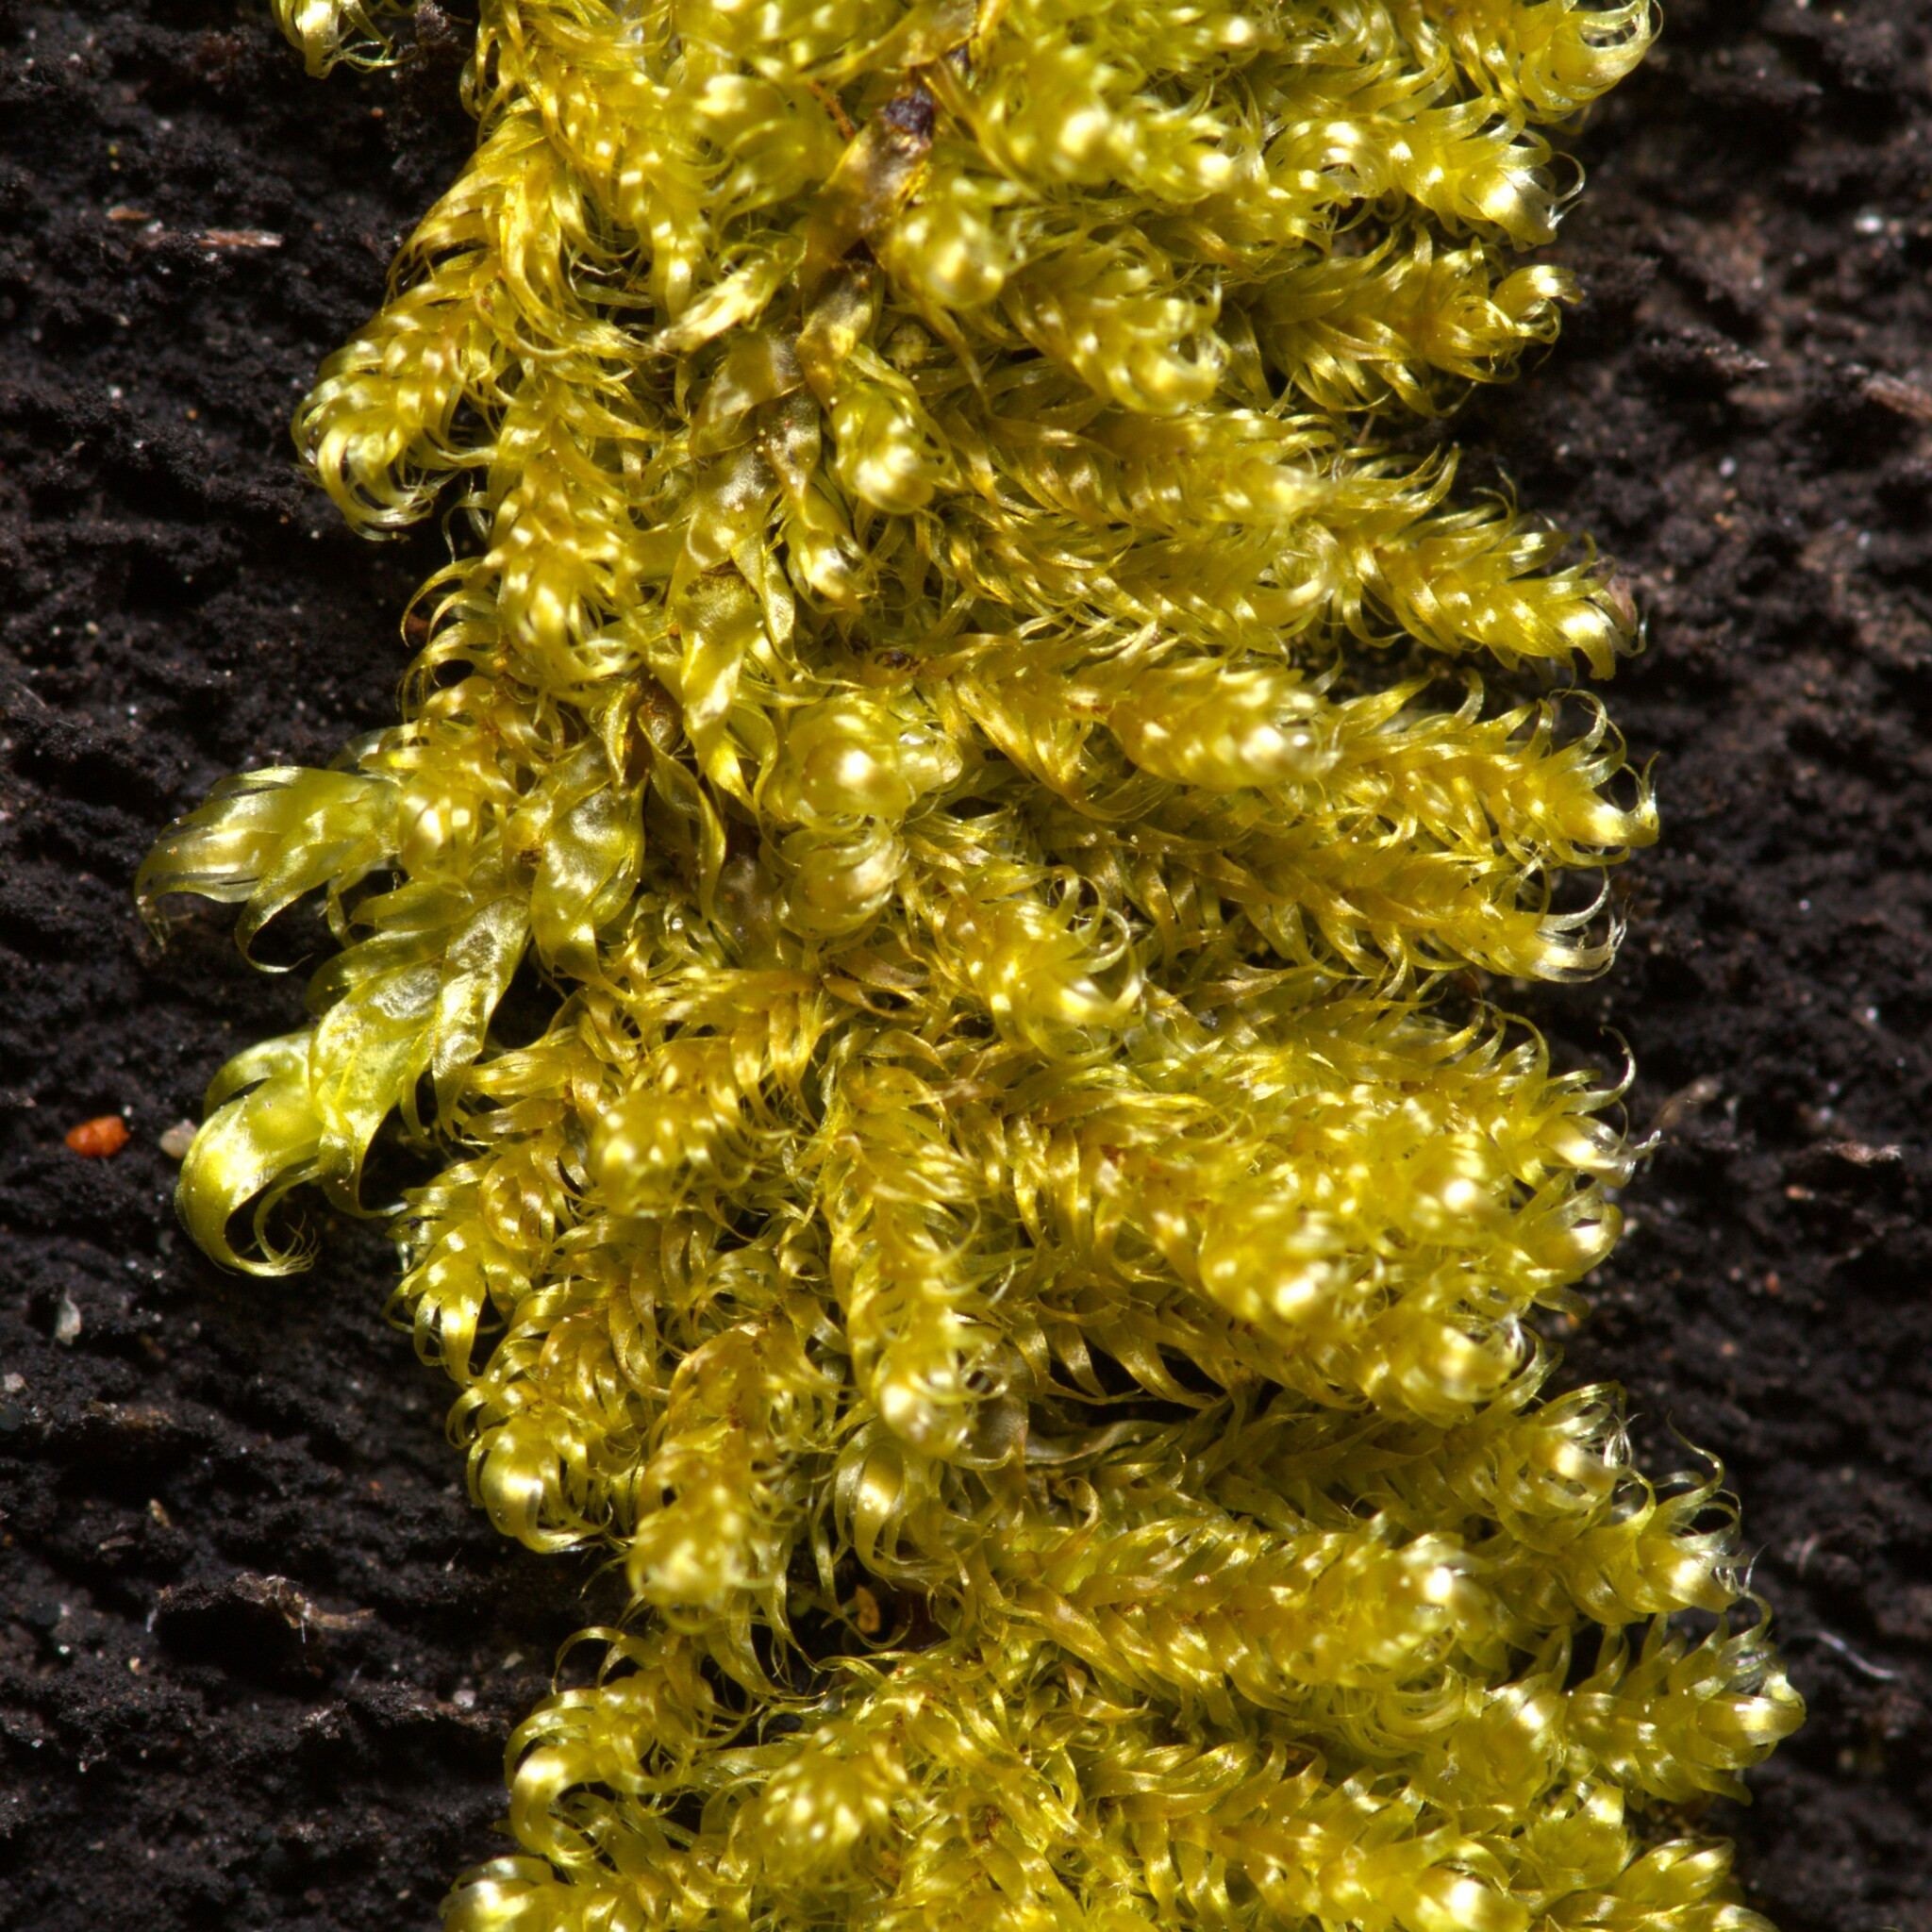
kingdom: Plantae
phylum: Bryophyta
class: Bryopsida
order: Hypnales
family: Callicladiaceae
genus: Callicladium
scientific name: Callicladium imponens
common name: Brocade moss
